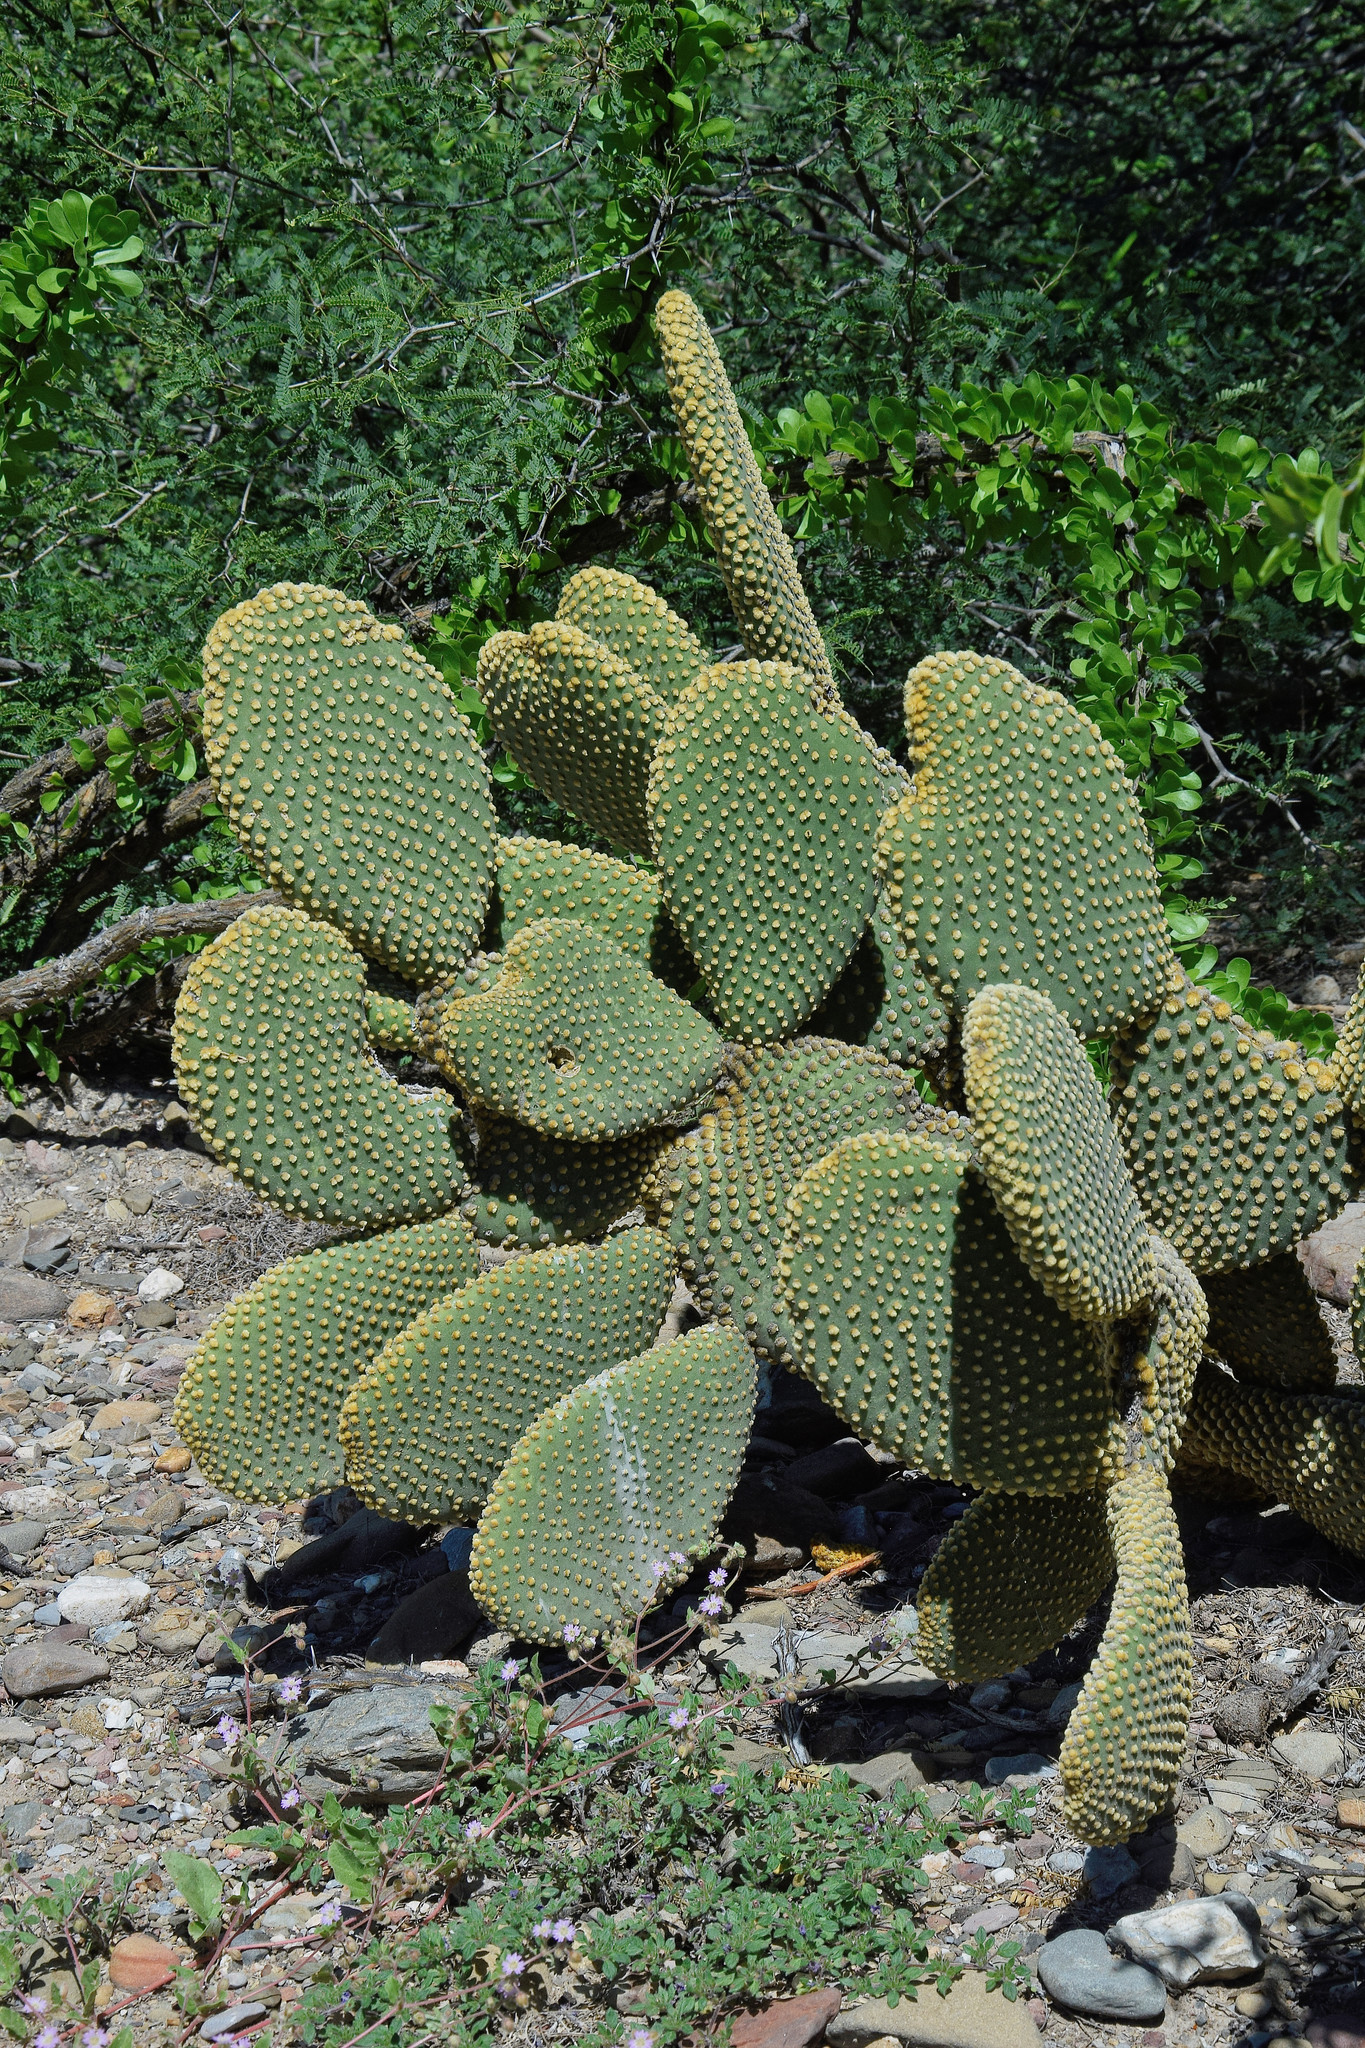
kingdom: Plantae
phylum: Tracheophyta
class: Magnoliopsida
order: Caryophyllales
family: Cactaceae
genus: Opuntia
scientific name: Opuntia microdasys
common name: Angel's-wings
